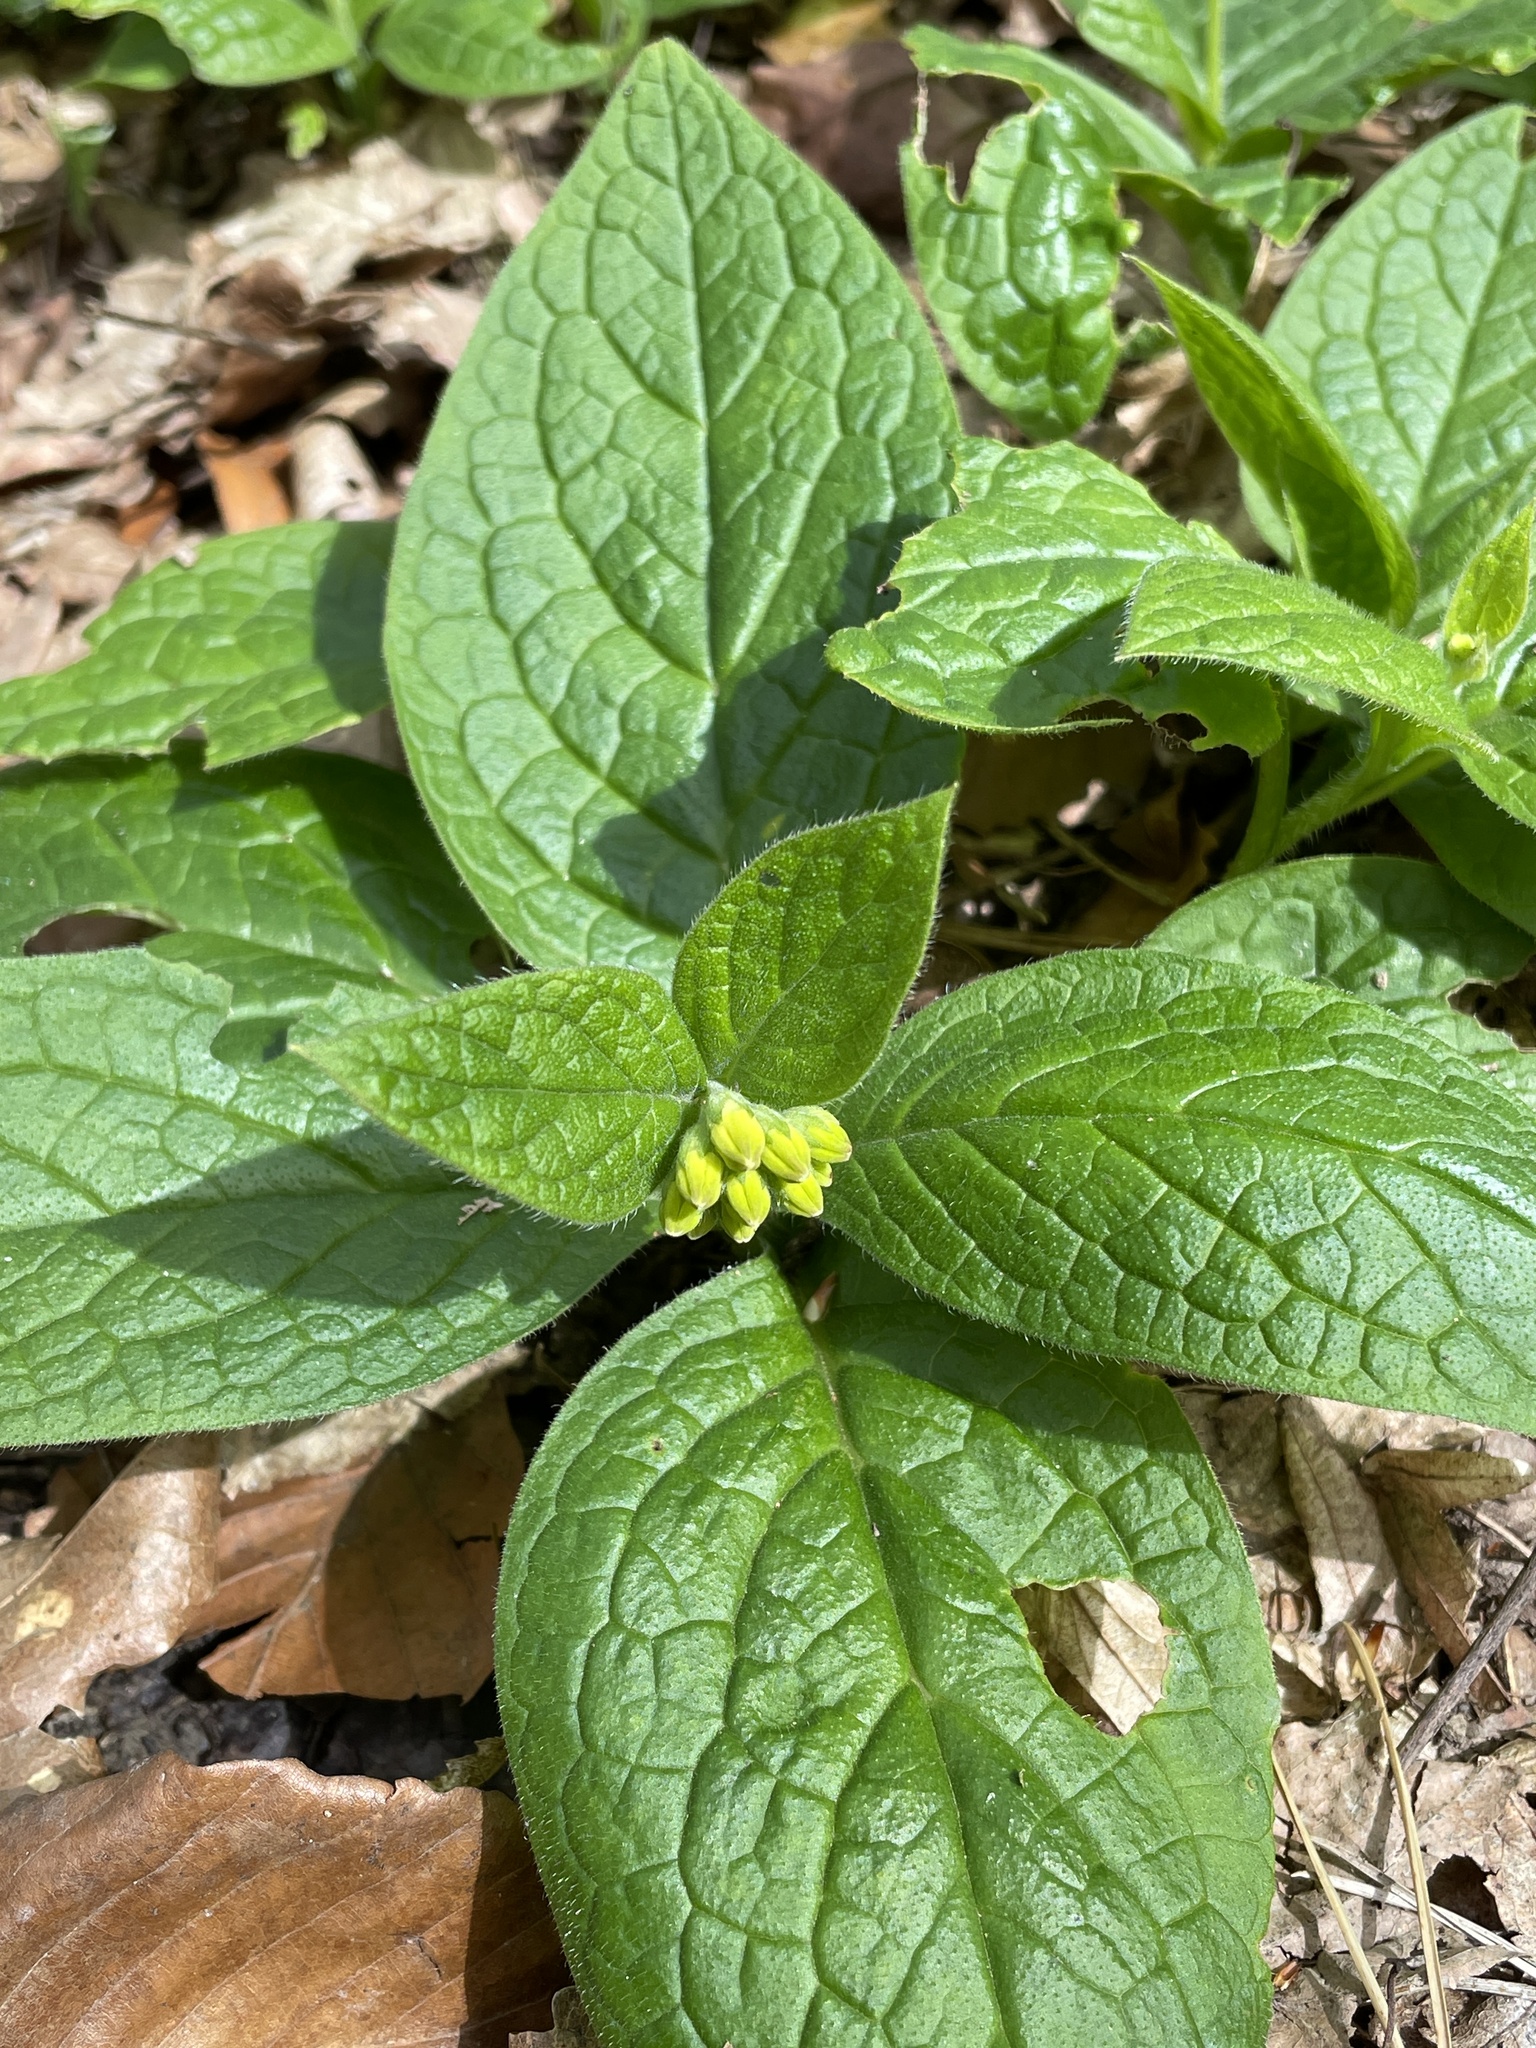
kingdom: Plantae
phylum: Tracheophyta
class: Magnoliopsida
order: Boraginales
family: Boraginaceae
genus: Symphytum
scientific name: Symphytum tuberosum
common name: Tuberous comfrey
